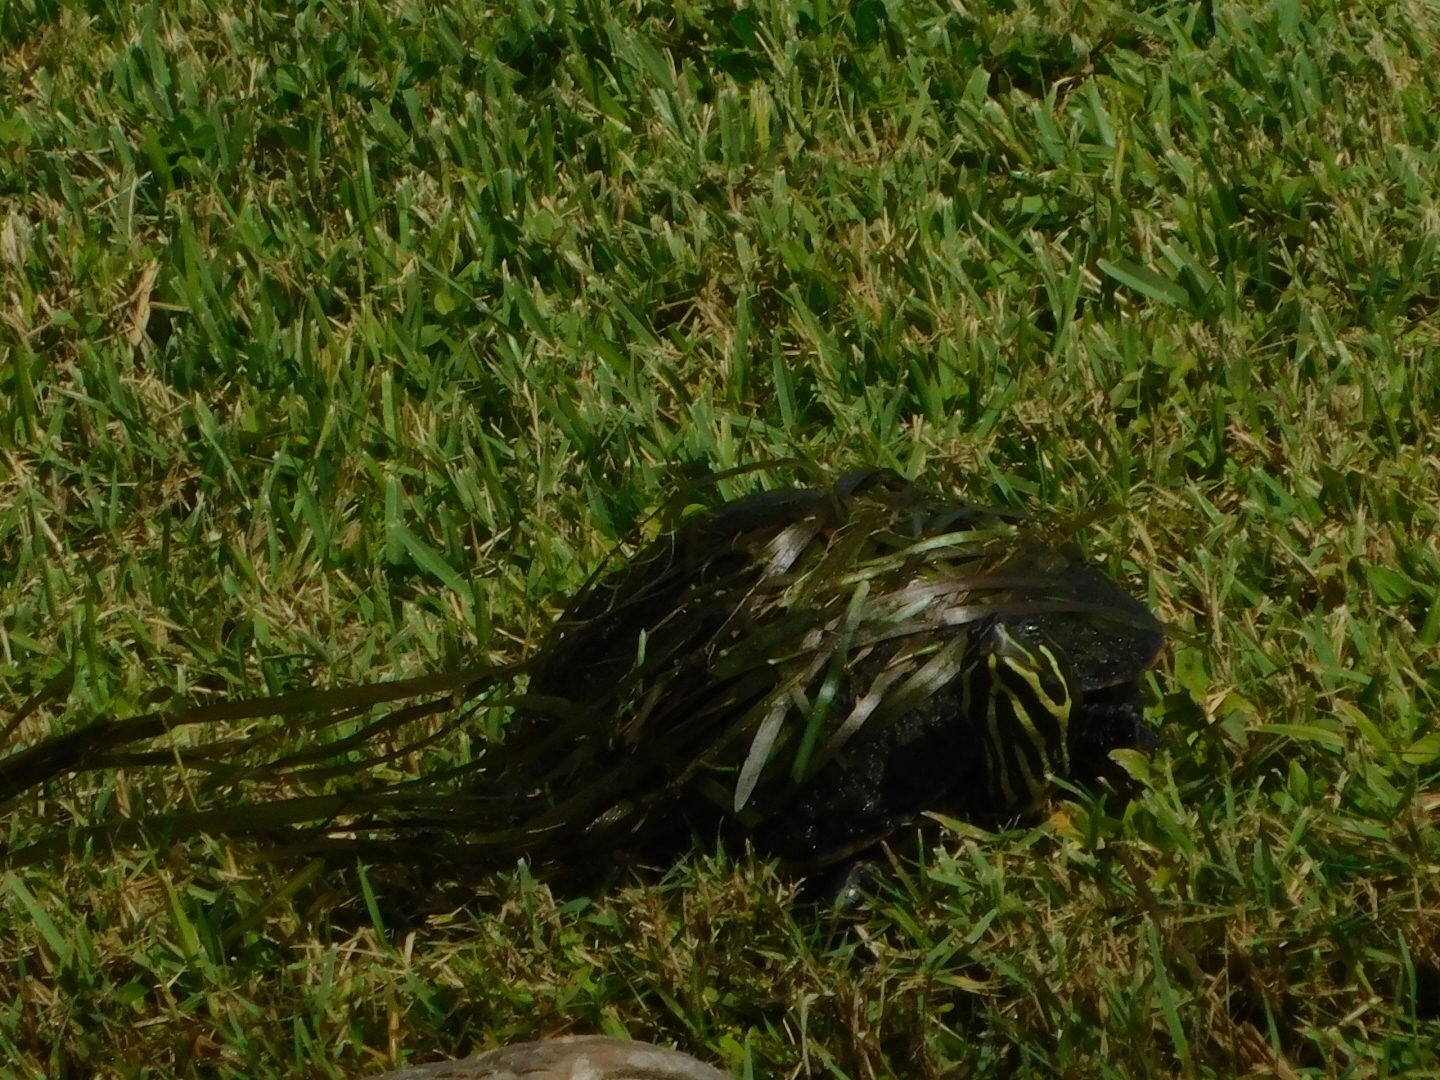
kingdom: Animalia
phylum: Chordata
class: Testudines
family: Emydidae
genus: Pseudemys
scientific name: Pseudemys nelsoni
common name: Florida red-bellied turtle
